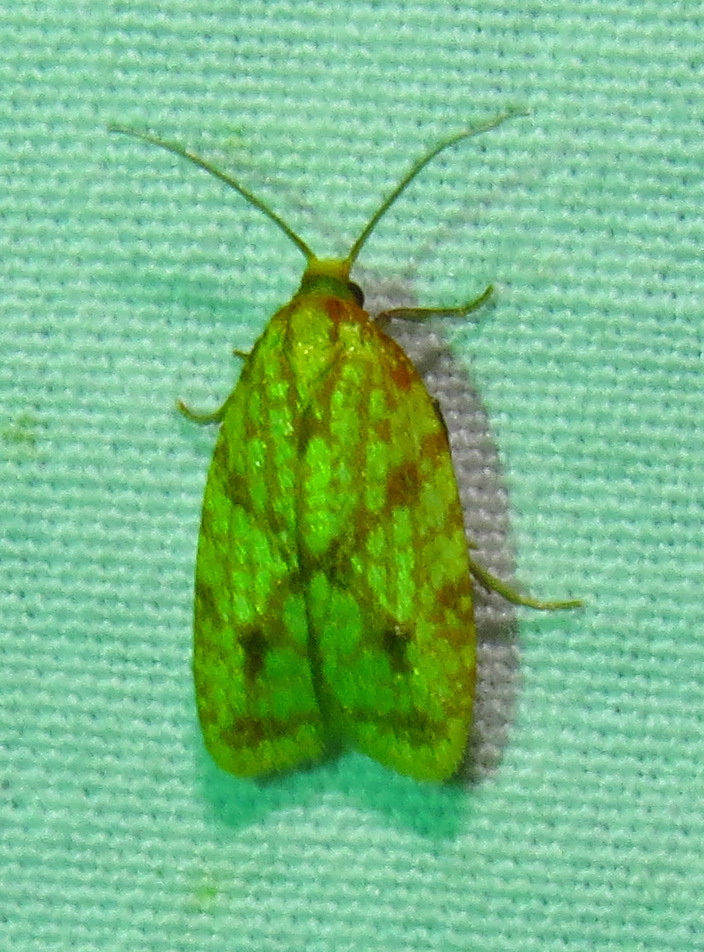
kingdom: Animalia
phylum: Arthropoda
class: Insecta
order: Lepidoptera
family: Tortricidae
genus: Sparganothis
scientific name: Sparganothis sulfureana
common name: Sparganothis fruitworm moth
